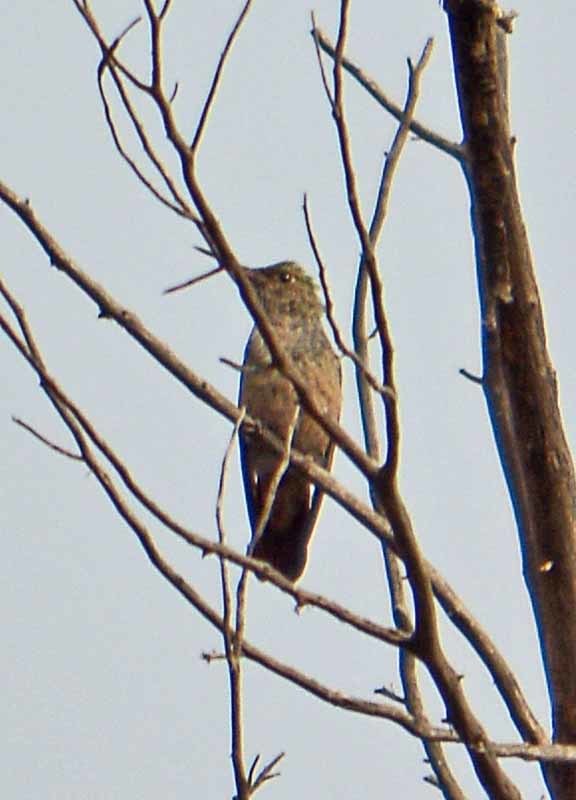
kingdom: Animalia
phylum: Chordata
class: Aves
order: Apodiformes
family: Trochilidae
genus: Saucerottia
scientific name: Saucerottia beryllina
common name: Berylline hummingbird
